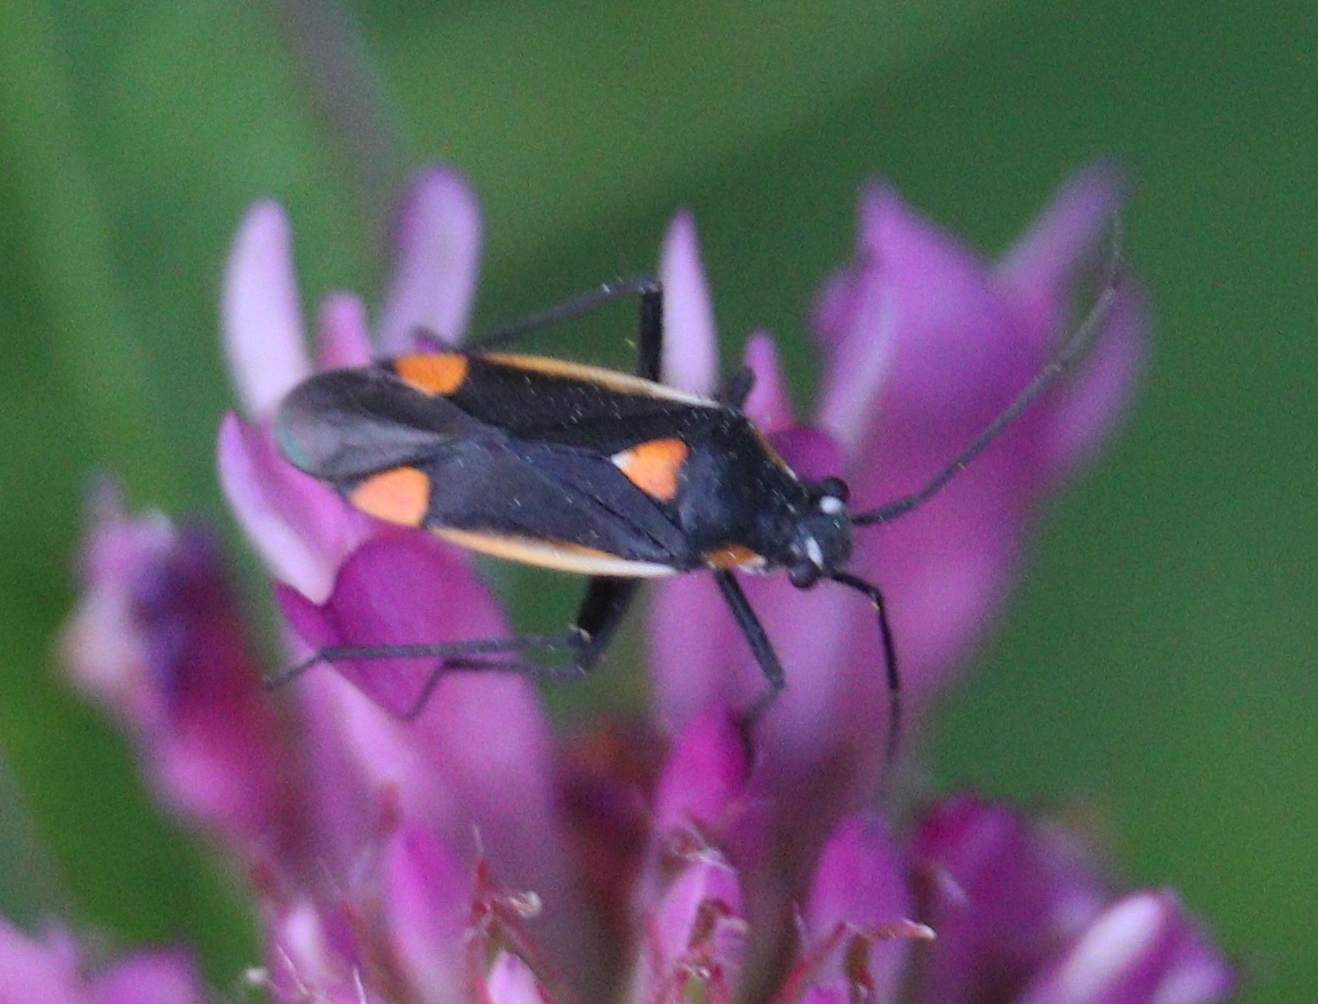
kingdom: Animalia
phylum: Arthropoda
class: Insecta
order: Hemiptera
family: Miridae
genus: Capsodes
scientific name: Capsodes gothicus
